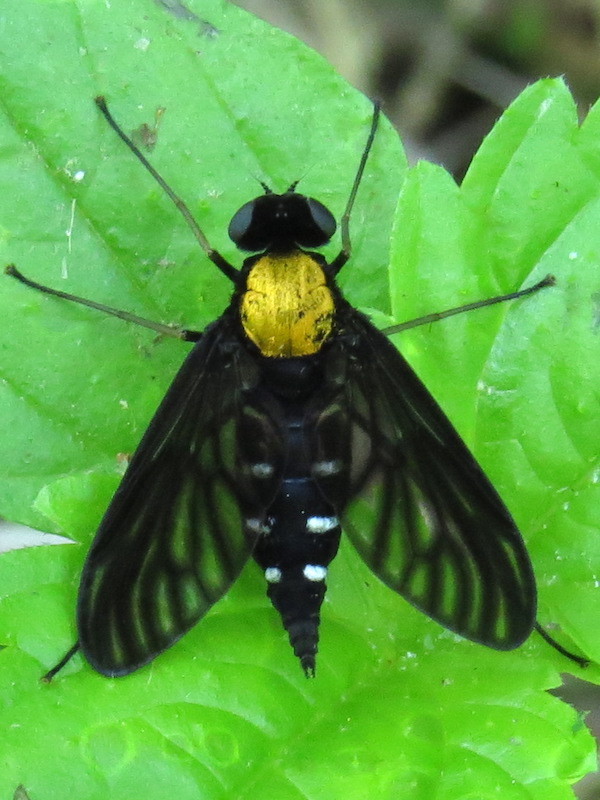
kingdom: Animalia
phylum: Arthropoda
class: Insecta
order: Diptera
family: Rhagionidae
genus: Chrysopilus
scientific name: Chrysopilus thoracicus
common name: Golden-backed snipe fly
